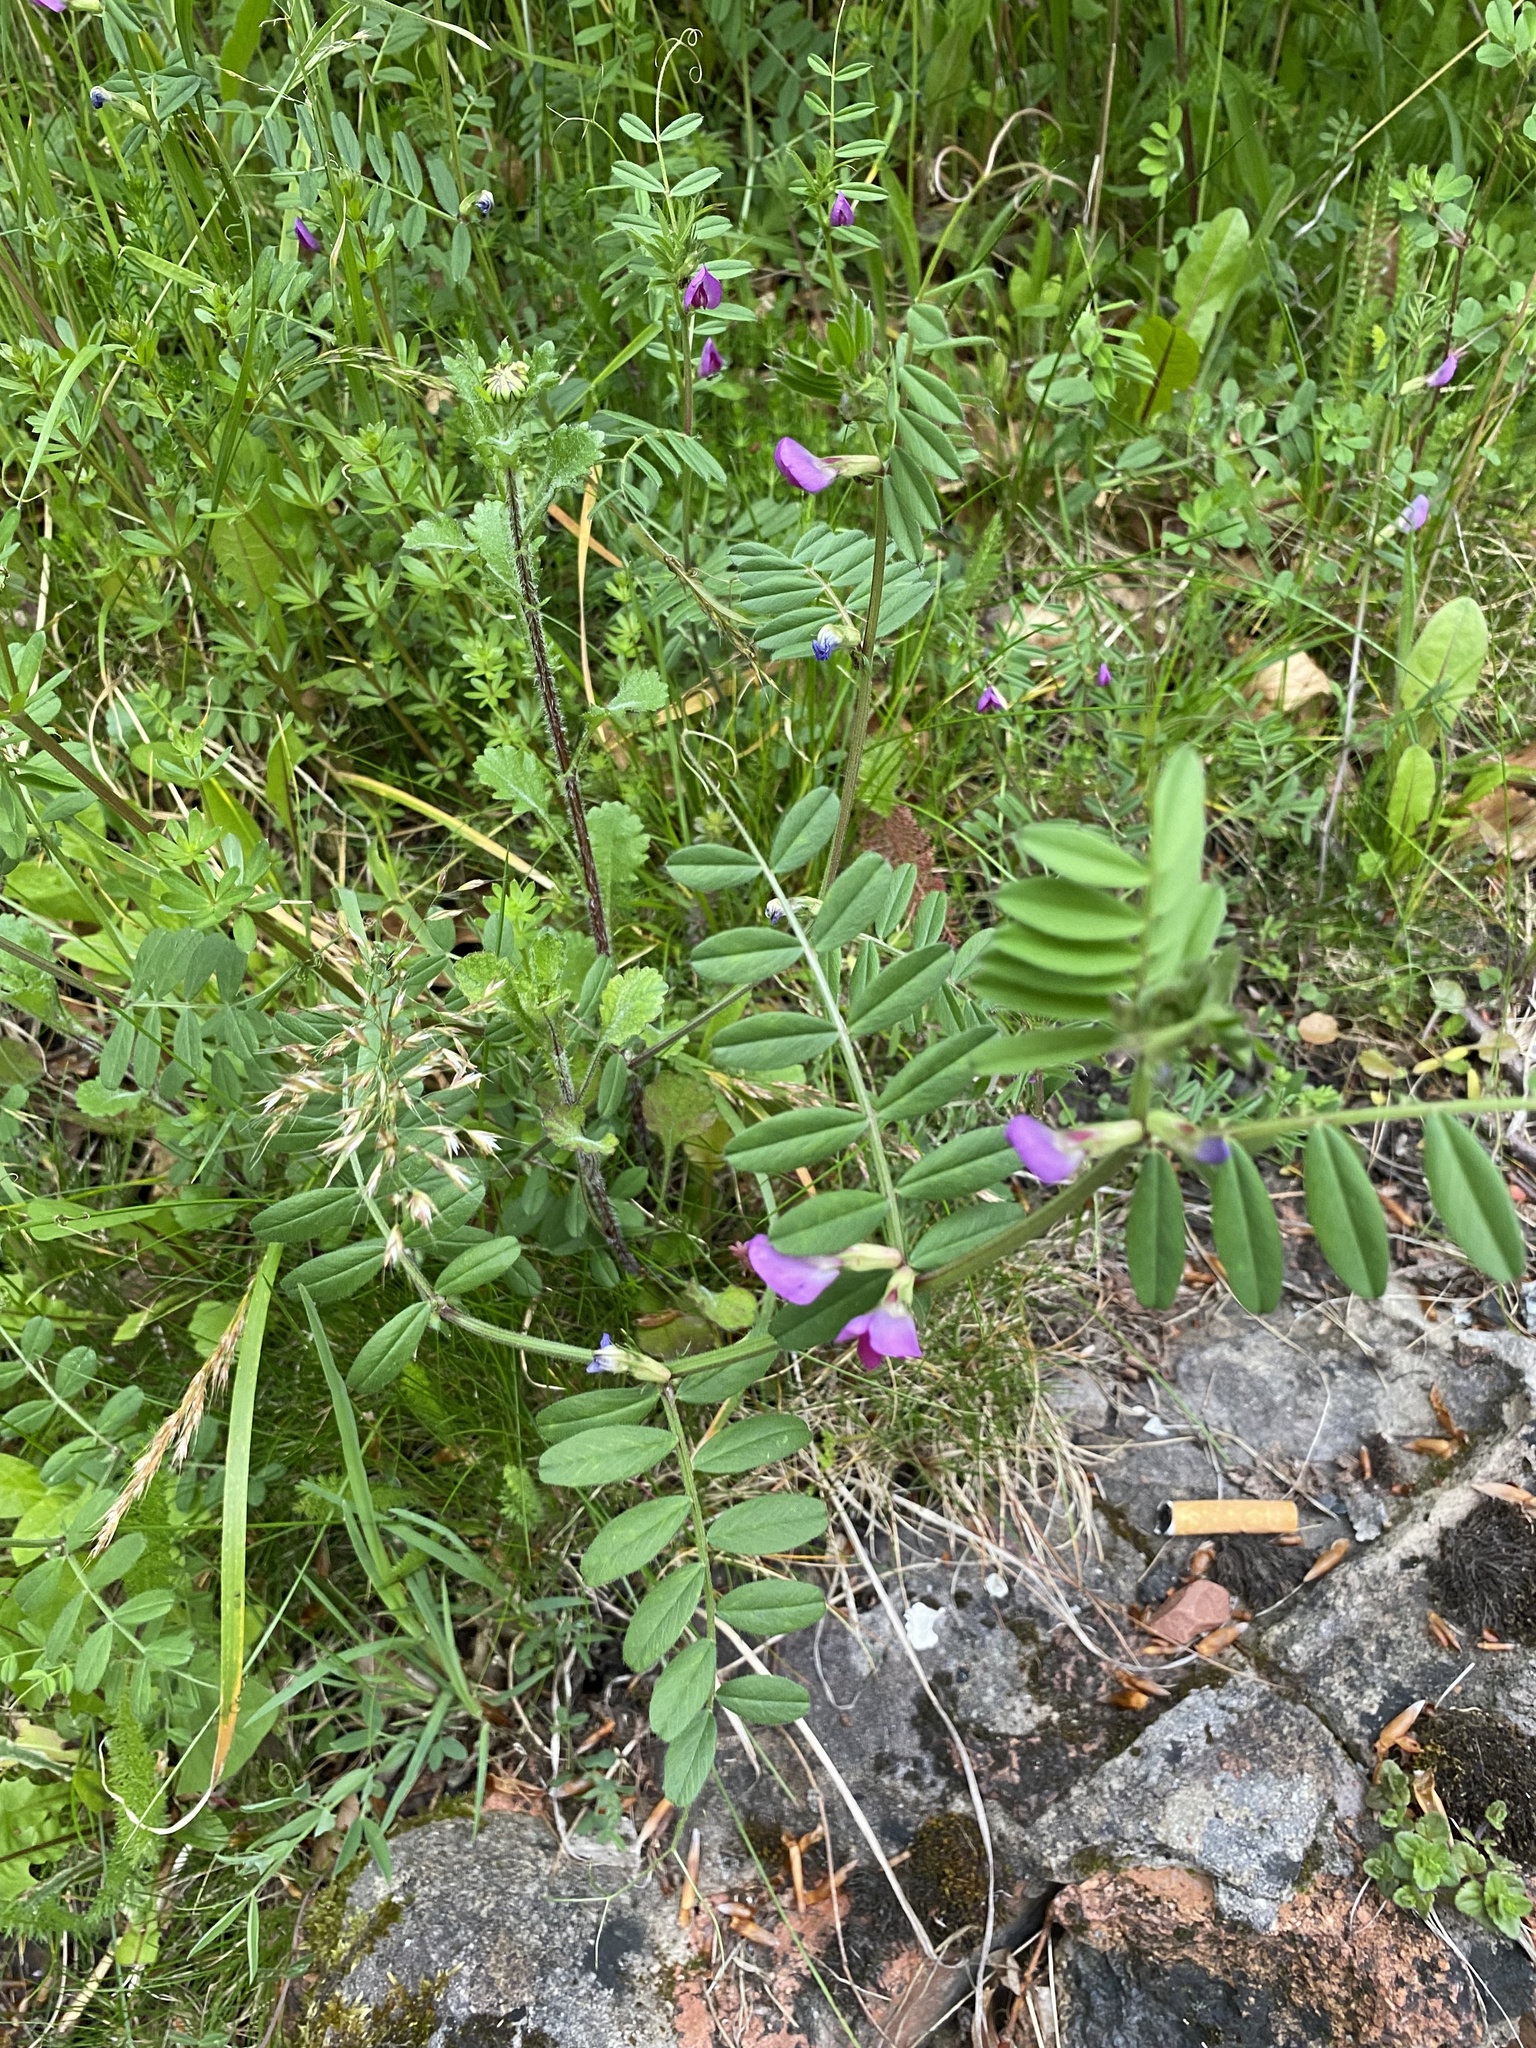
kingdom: Plantae
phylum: Tracheophyta
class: Magnoliopsida
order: Fabales
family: Fabaceae
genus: Vicia
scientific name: Vicia sativa
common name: Garden vetch
